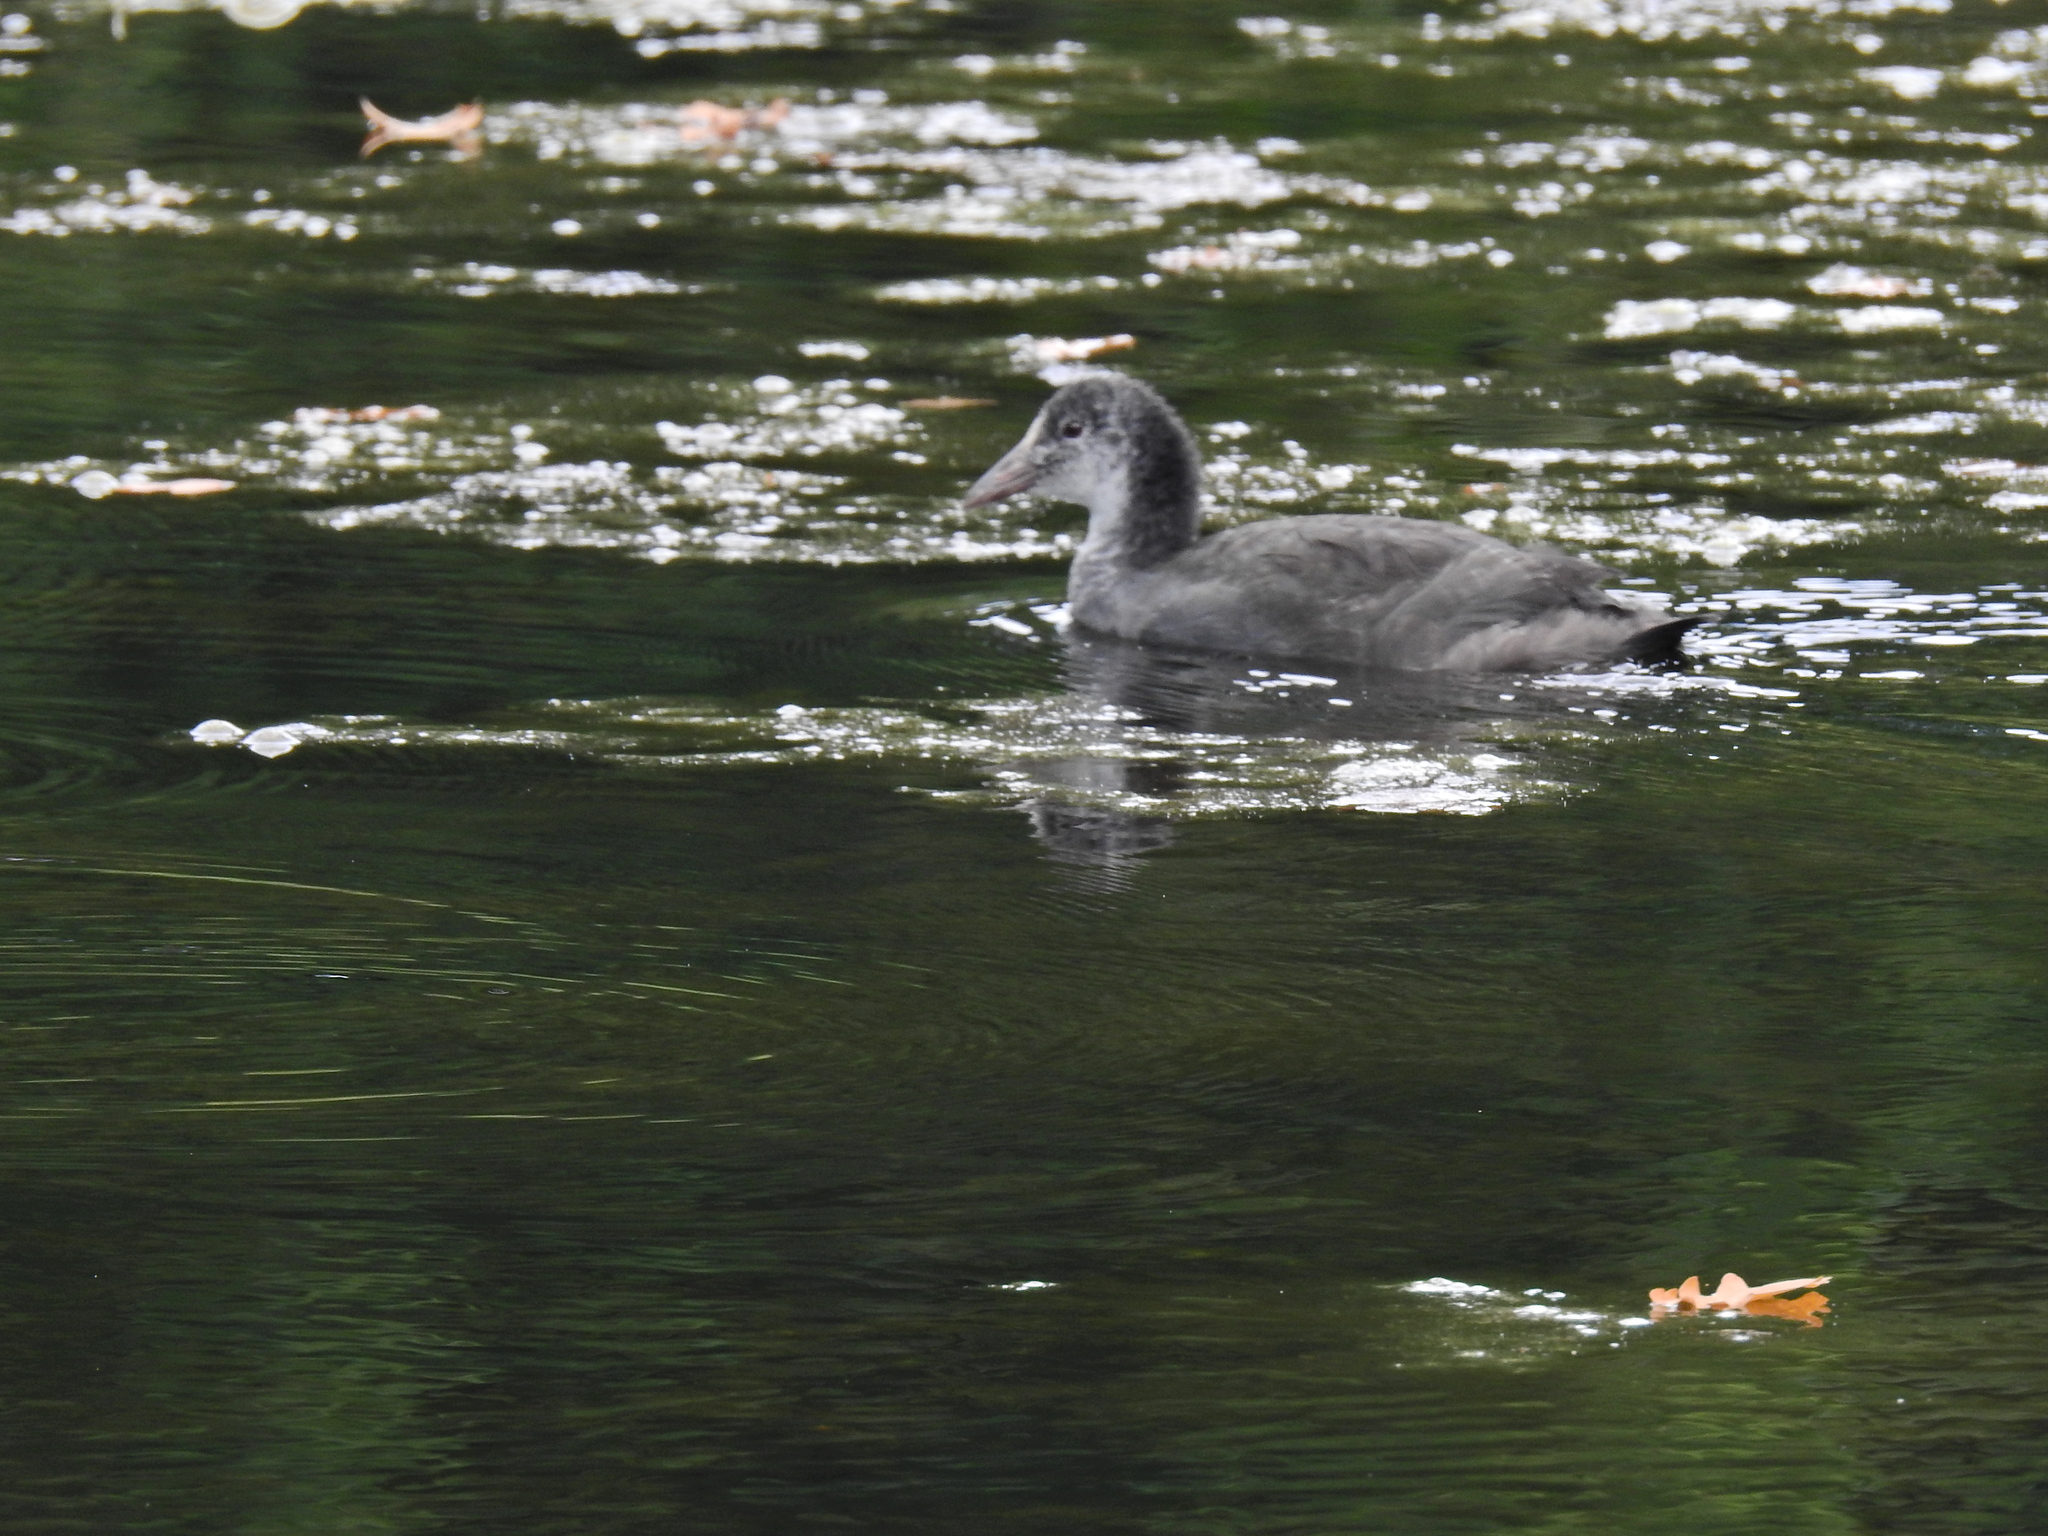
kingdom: Animalia
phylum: Chordata
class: Aves
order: Gruiformes
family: Rallidae
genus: Fulica
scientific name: Fulica atra
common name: Eurasian coot
